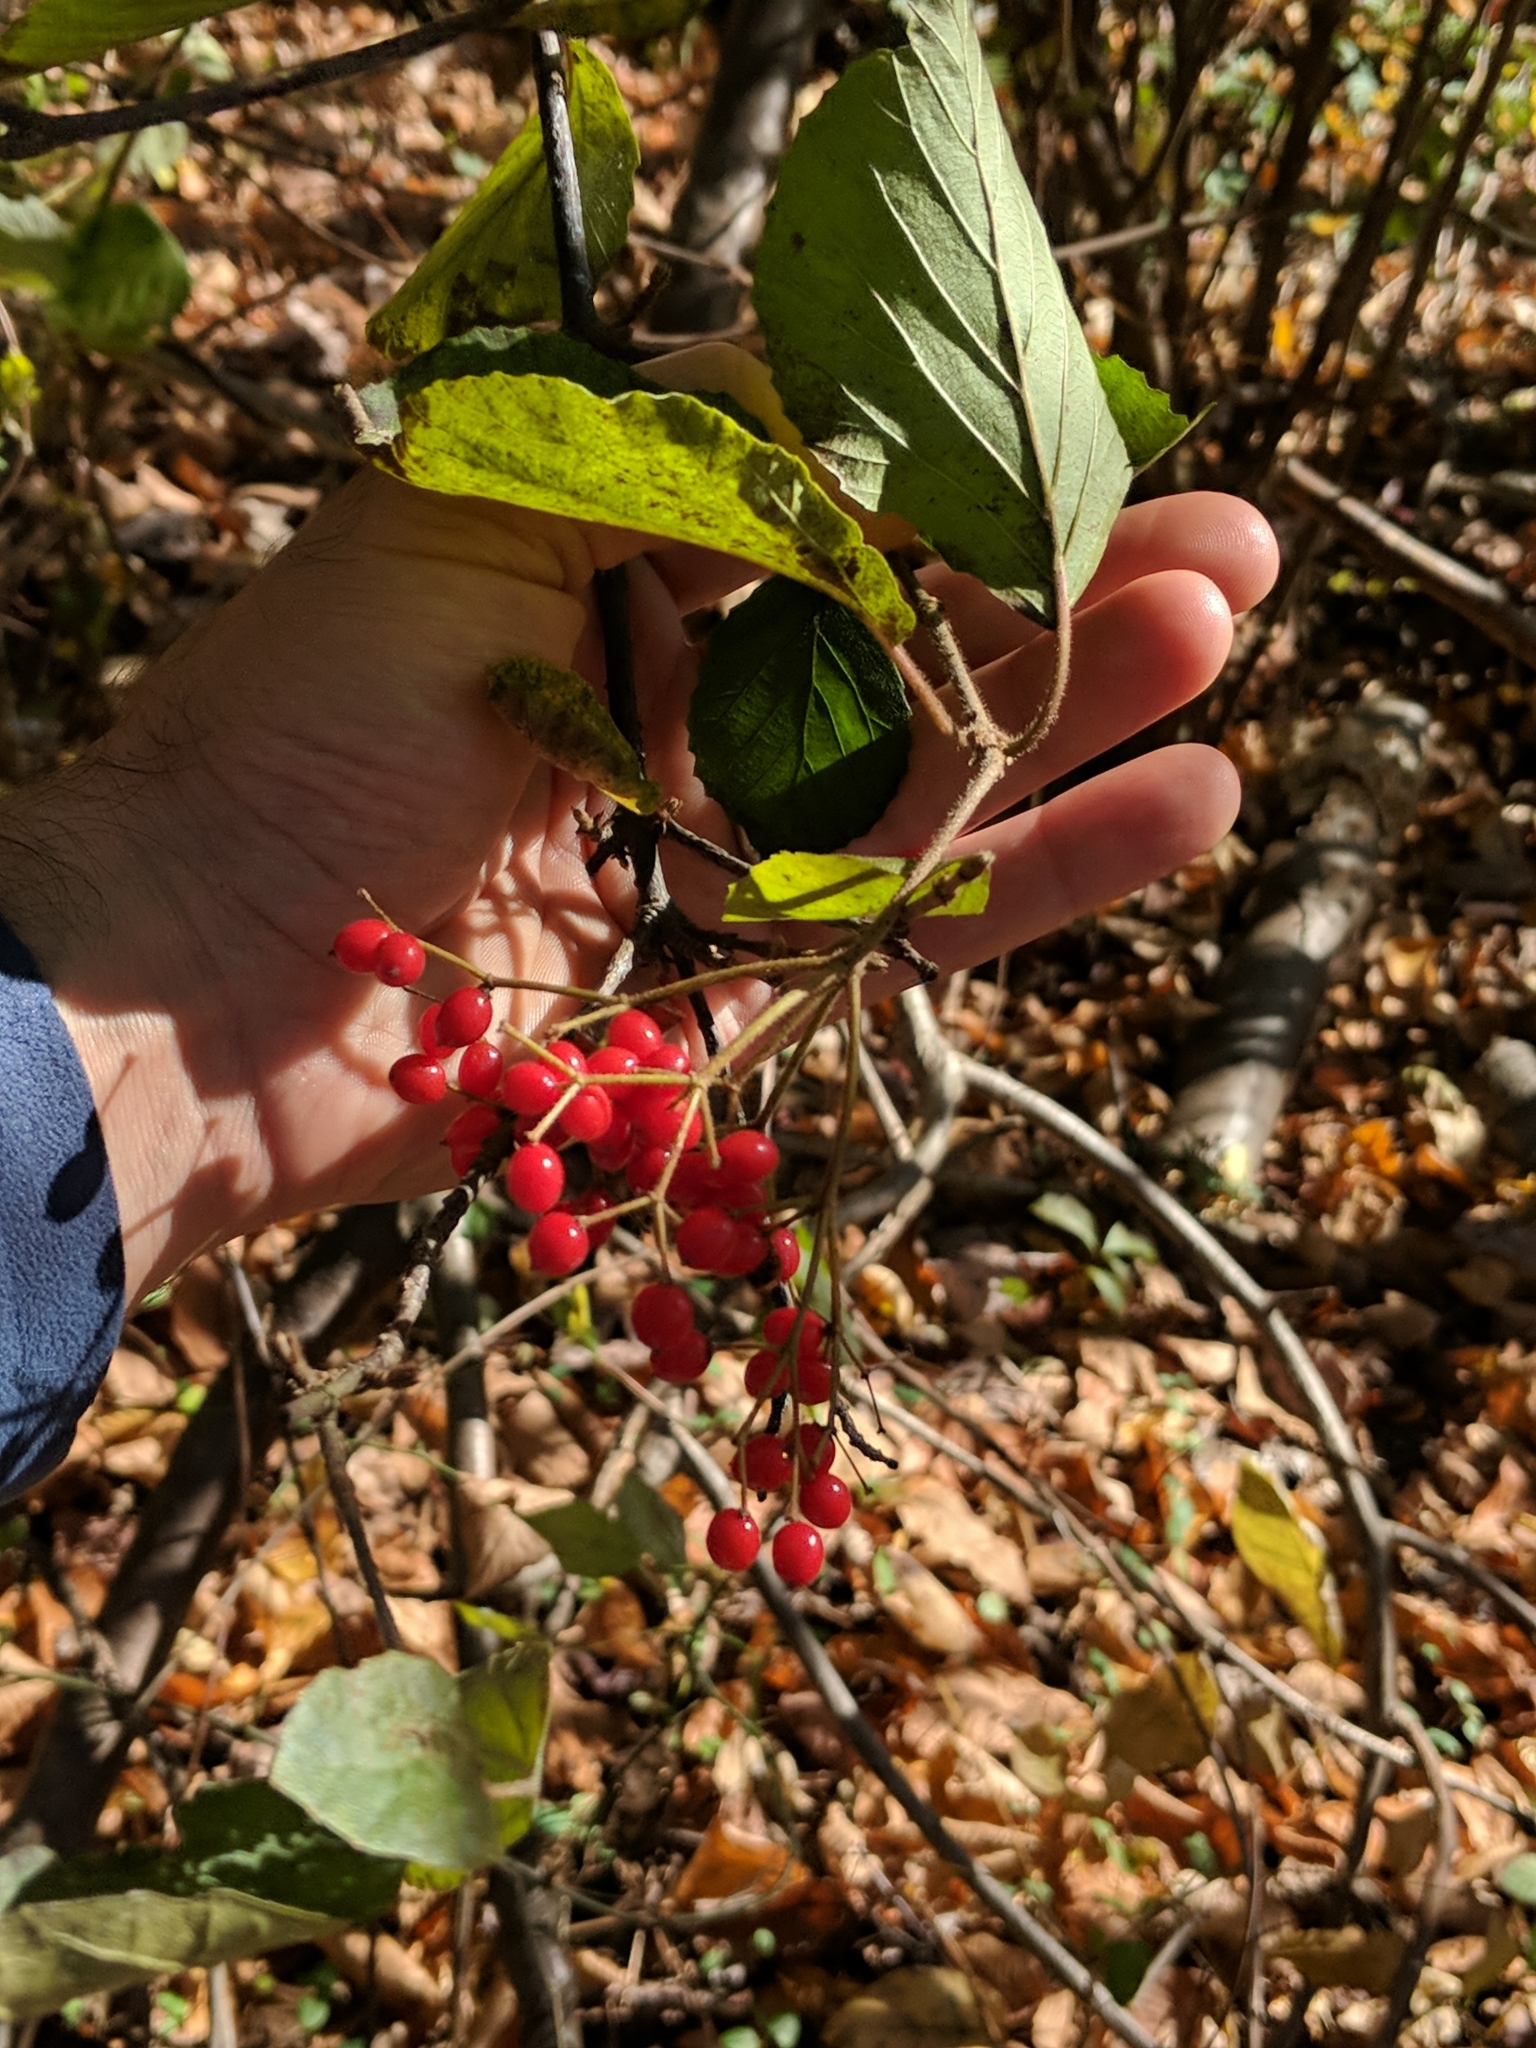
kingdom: Plantae
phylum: Tracheophyta
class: Magnoliopsida
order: Dipsacales
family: Viburnaceae
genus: Viburnum
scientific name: Viburnum dilatatum
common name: Linden arrowwood
